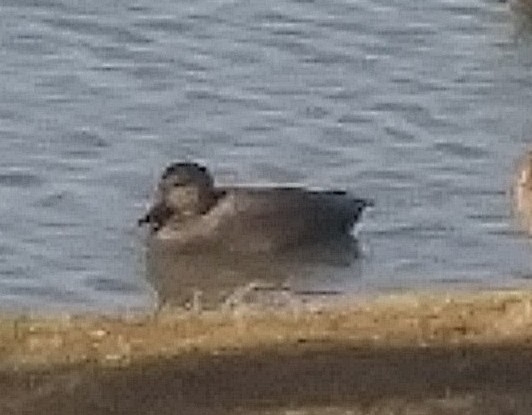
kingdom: Animalia
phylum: Chordata
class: Aves
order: Anseriformes
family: Anatidae
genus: Mareca
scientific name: Mareca strepera
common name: Gadwall
